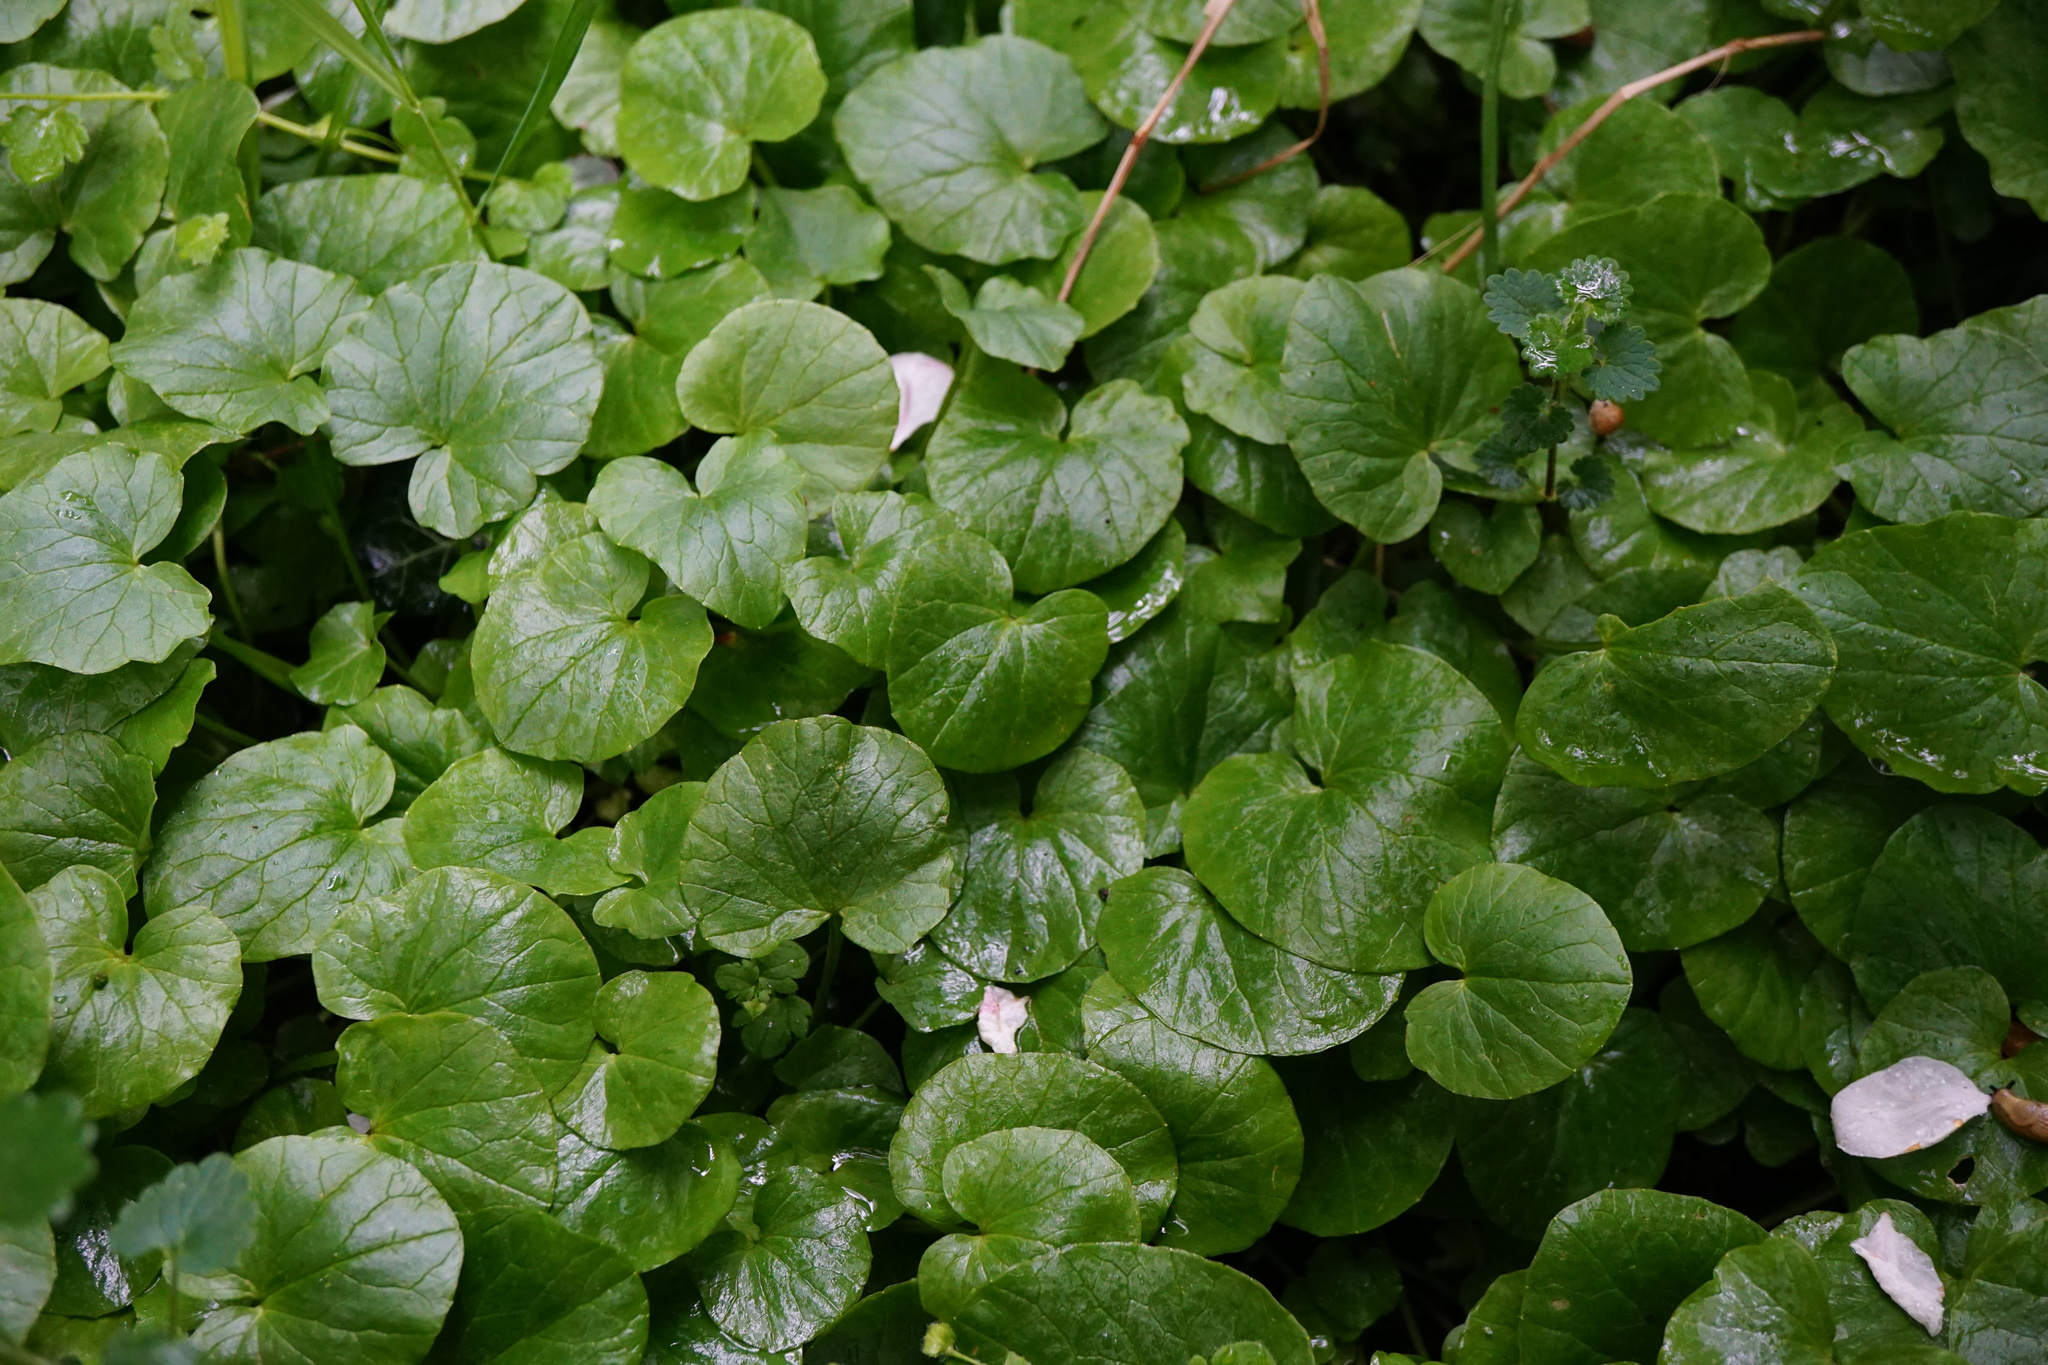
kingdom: Plantae
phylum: Tracheophyta
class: Magnoliopsida
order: Ranunculales
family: Ranunculaceae
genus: Ficaria
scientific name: Ficaria verna
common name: Lesser celandine
